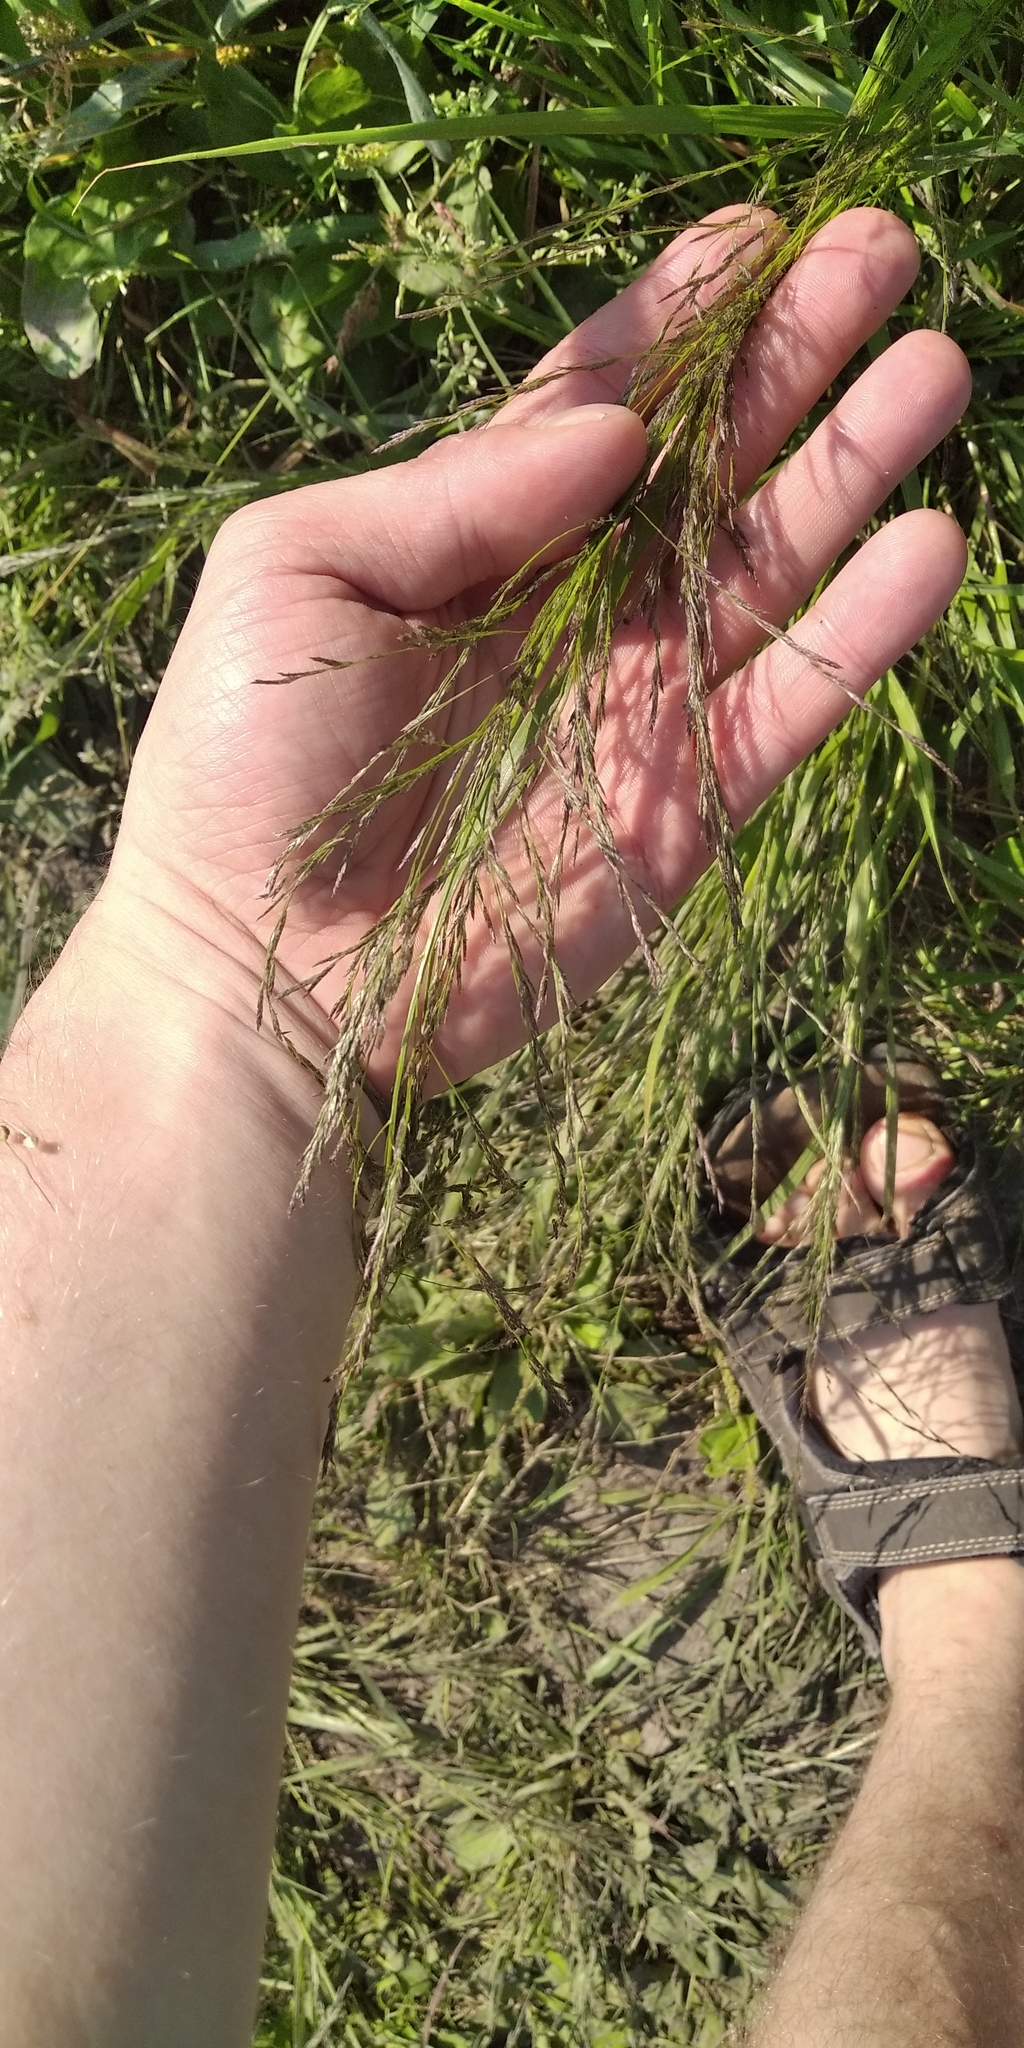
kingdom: Plantae
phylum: Tracheophyta
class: Liliopsida
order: Poales
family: Poaceae
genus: Eragrostis
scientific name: Eragrostis pilosa
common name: Indian lovegrass
